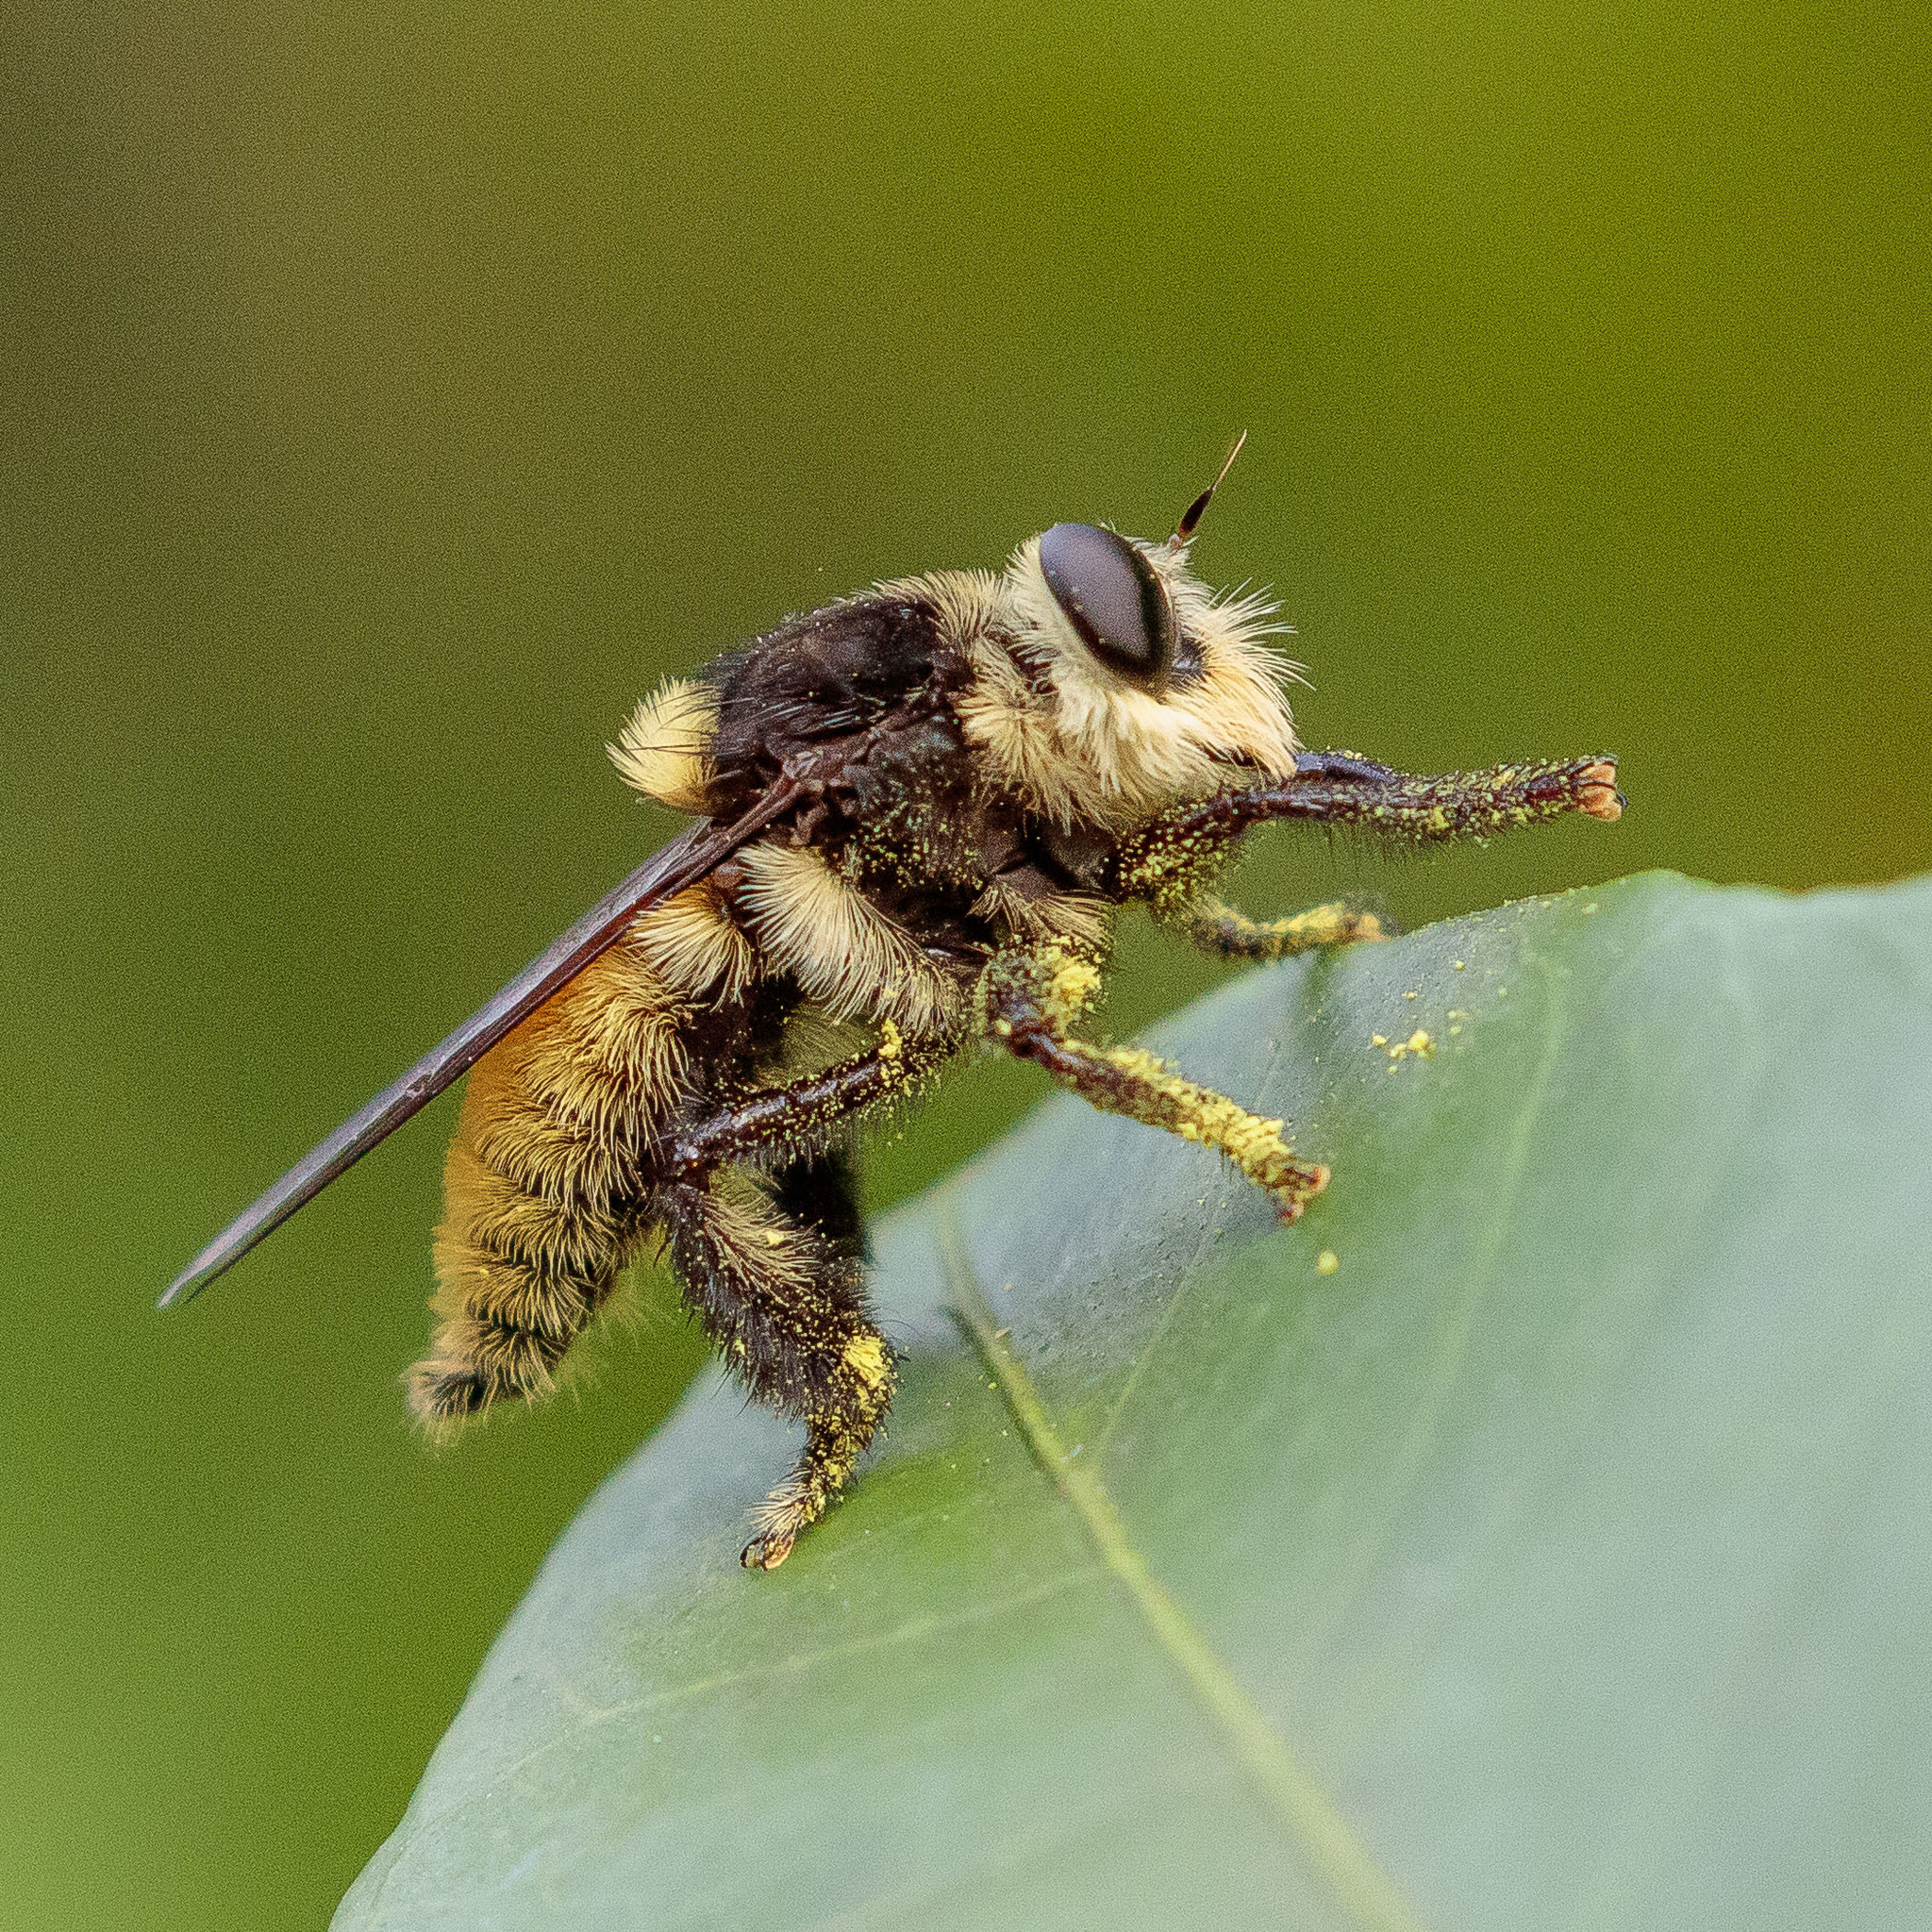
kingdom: Animalia
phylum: Arthropoda
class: Insecta
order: Diptera
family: Asilidae
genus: Mallophora
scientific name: Mallophora fautrix
